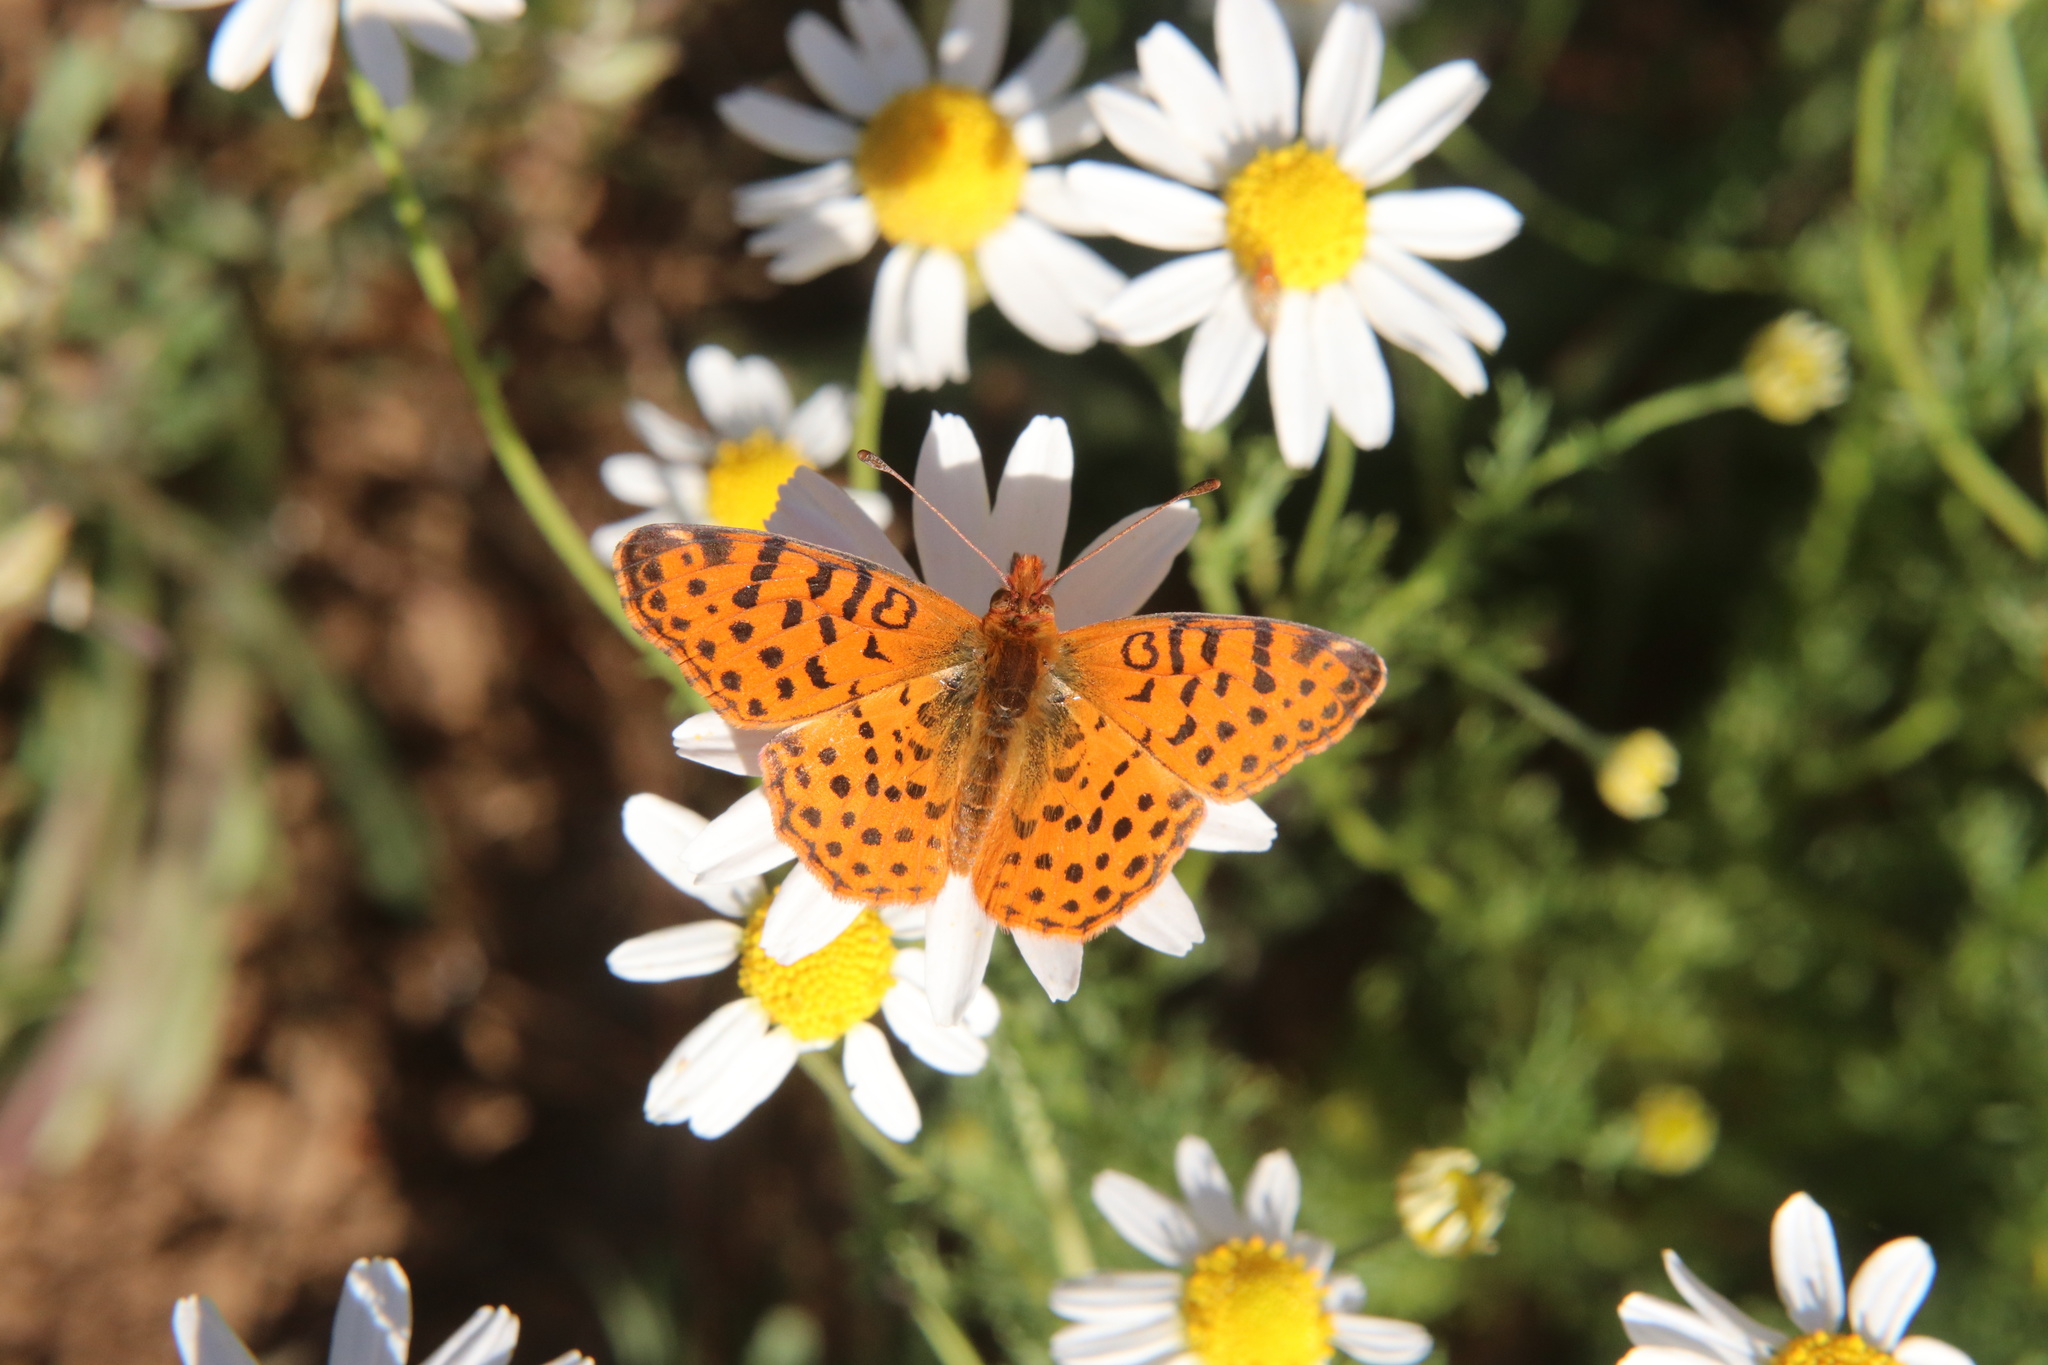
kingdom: Animalia
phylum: Arthropoda
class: Insecta
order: Lepidoptera
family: Nymphalidae
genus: Issoria
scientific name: Issoria Yramea cytheris
